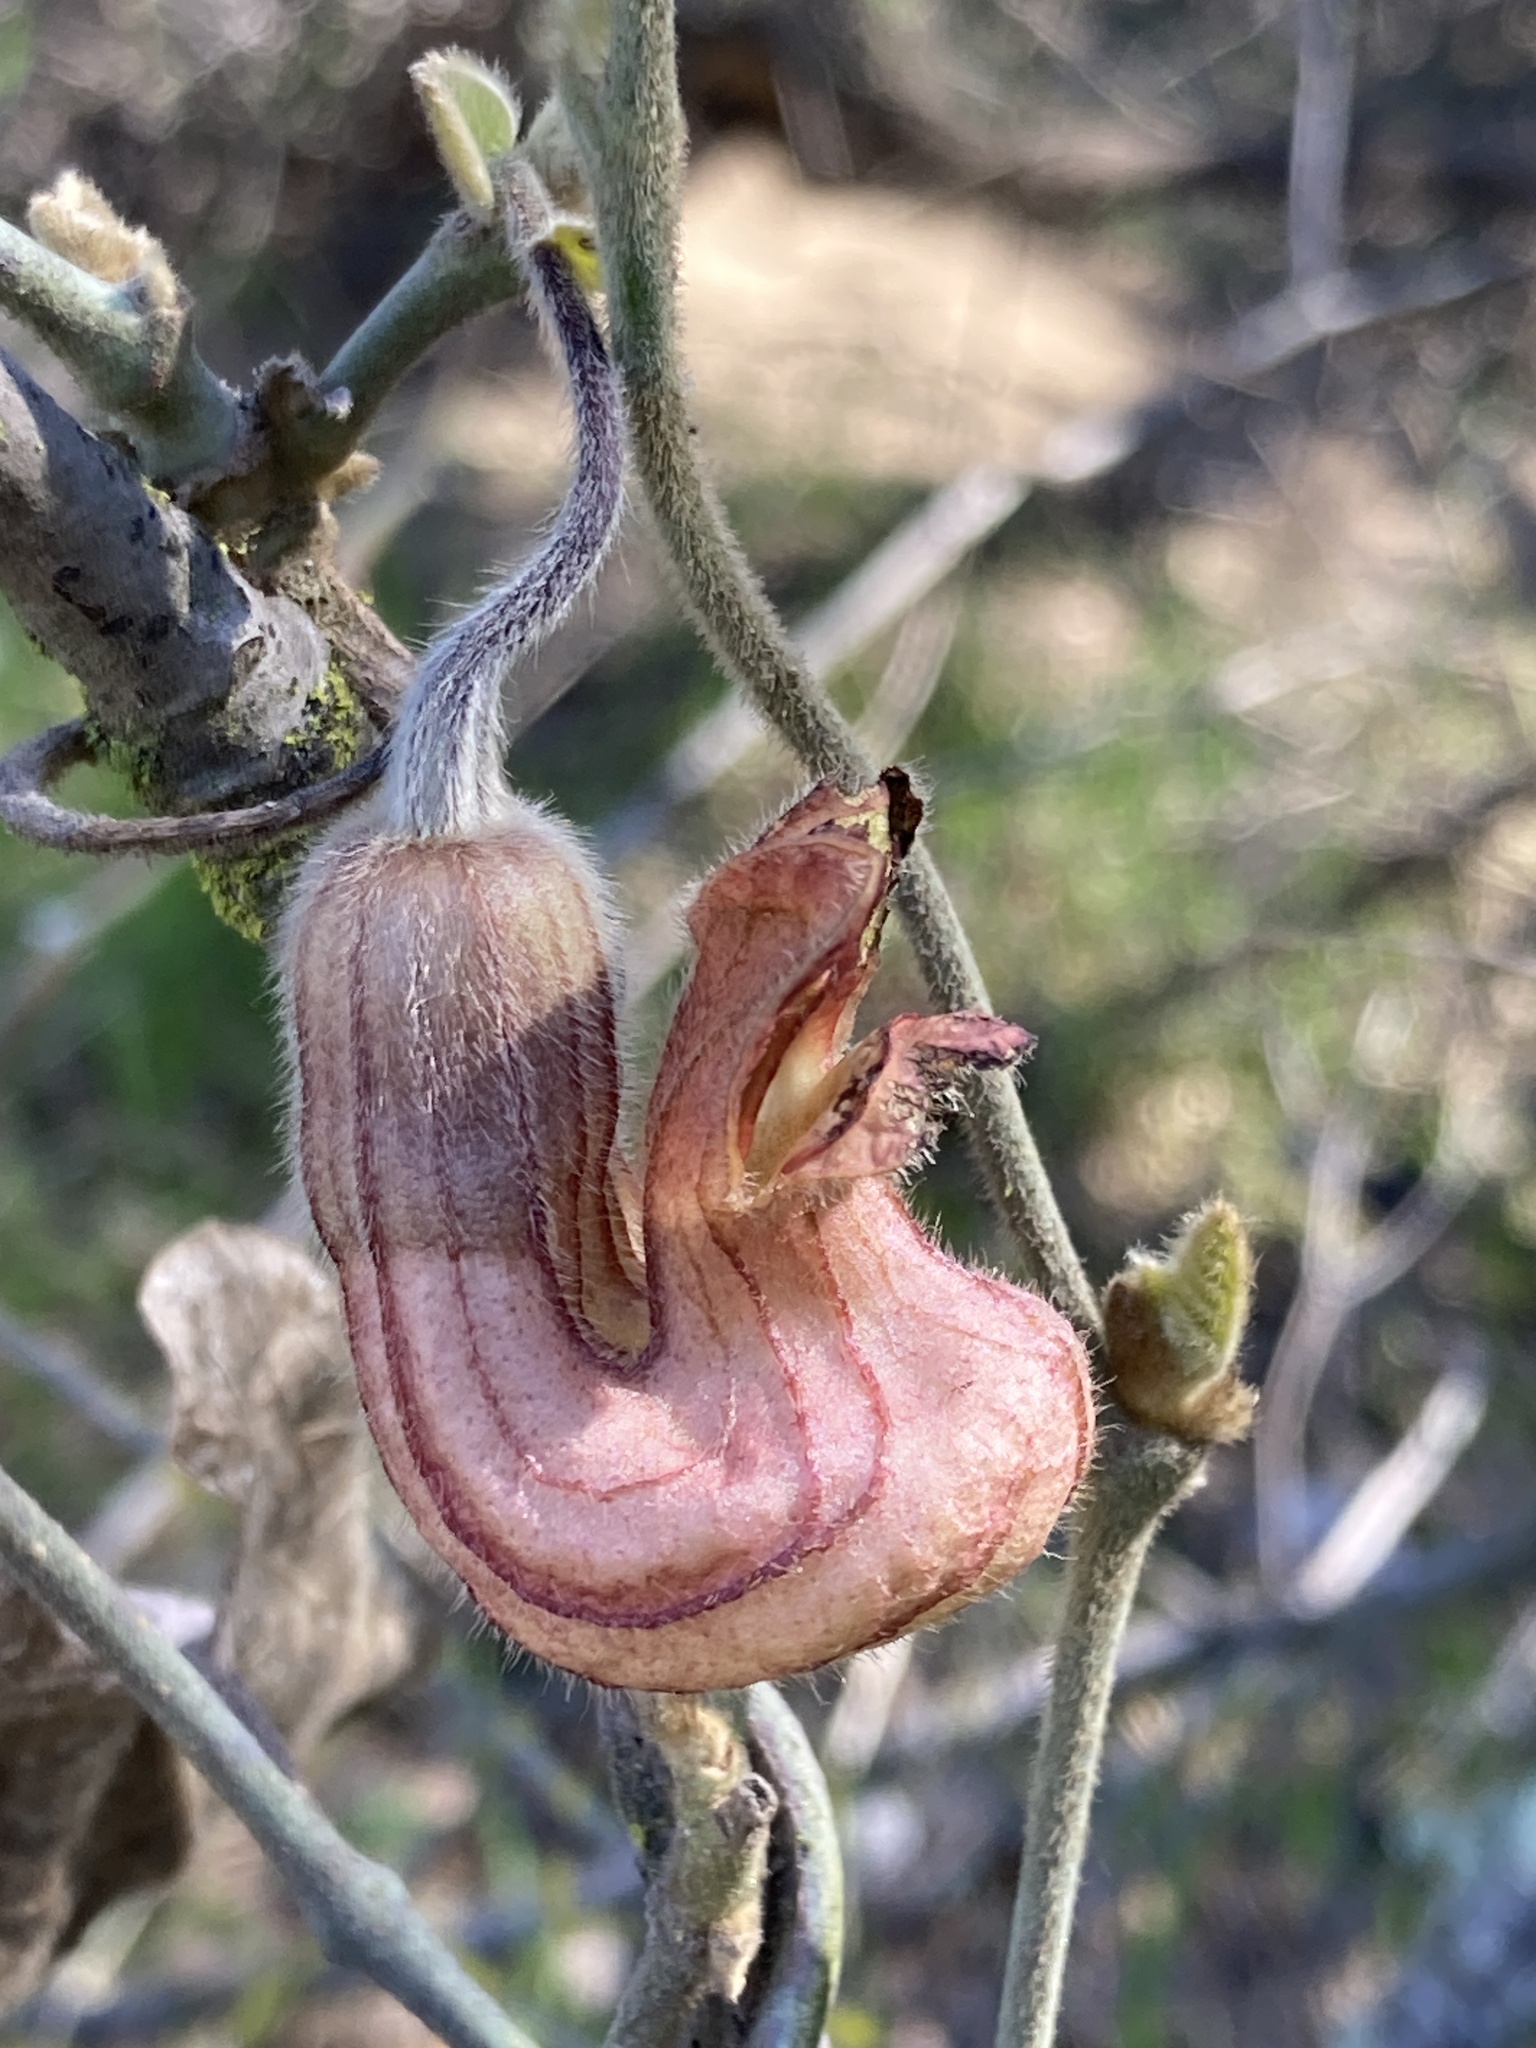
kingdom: Plantae
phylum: Tracheophyta
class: Magnoliopsida
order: Piperales
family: Aristolochiaceae
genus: Isotrema
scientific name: Isotrema californicum
